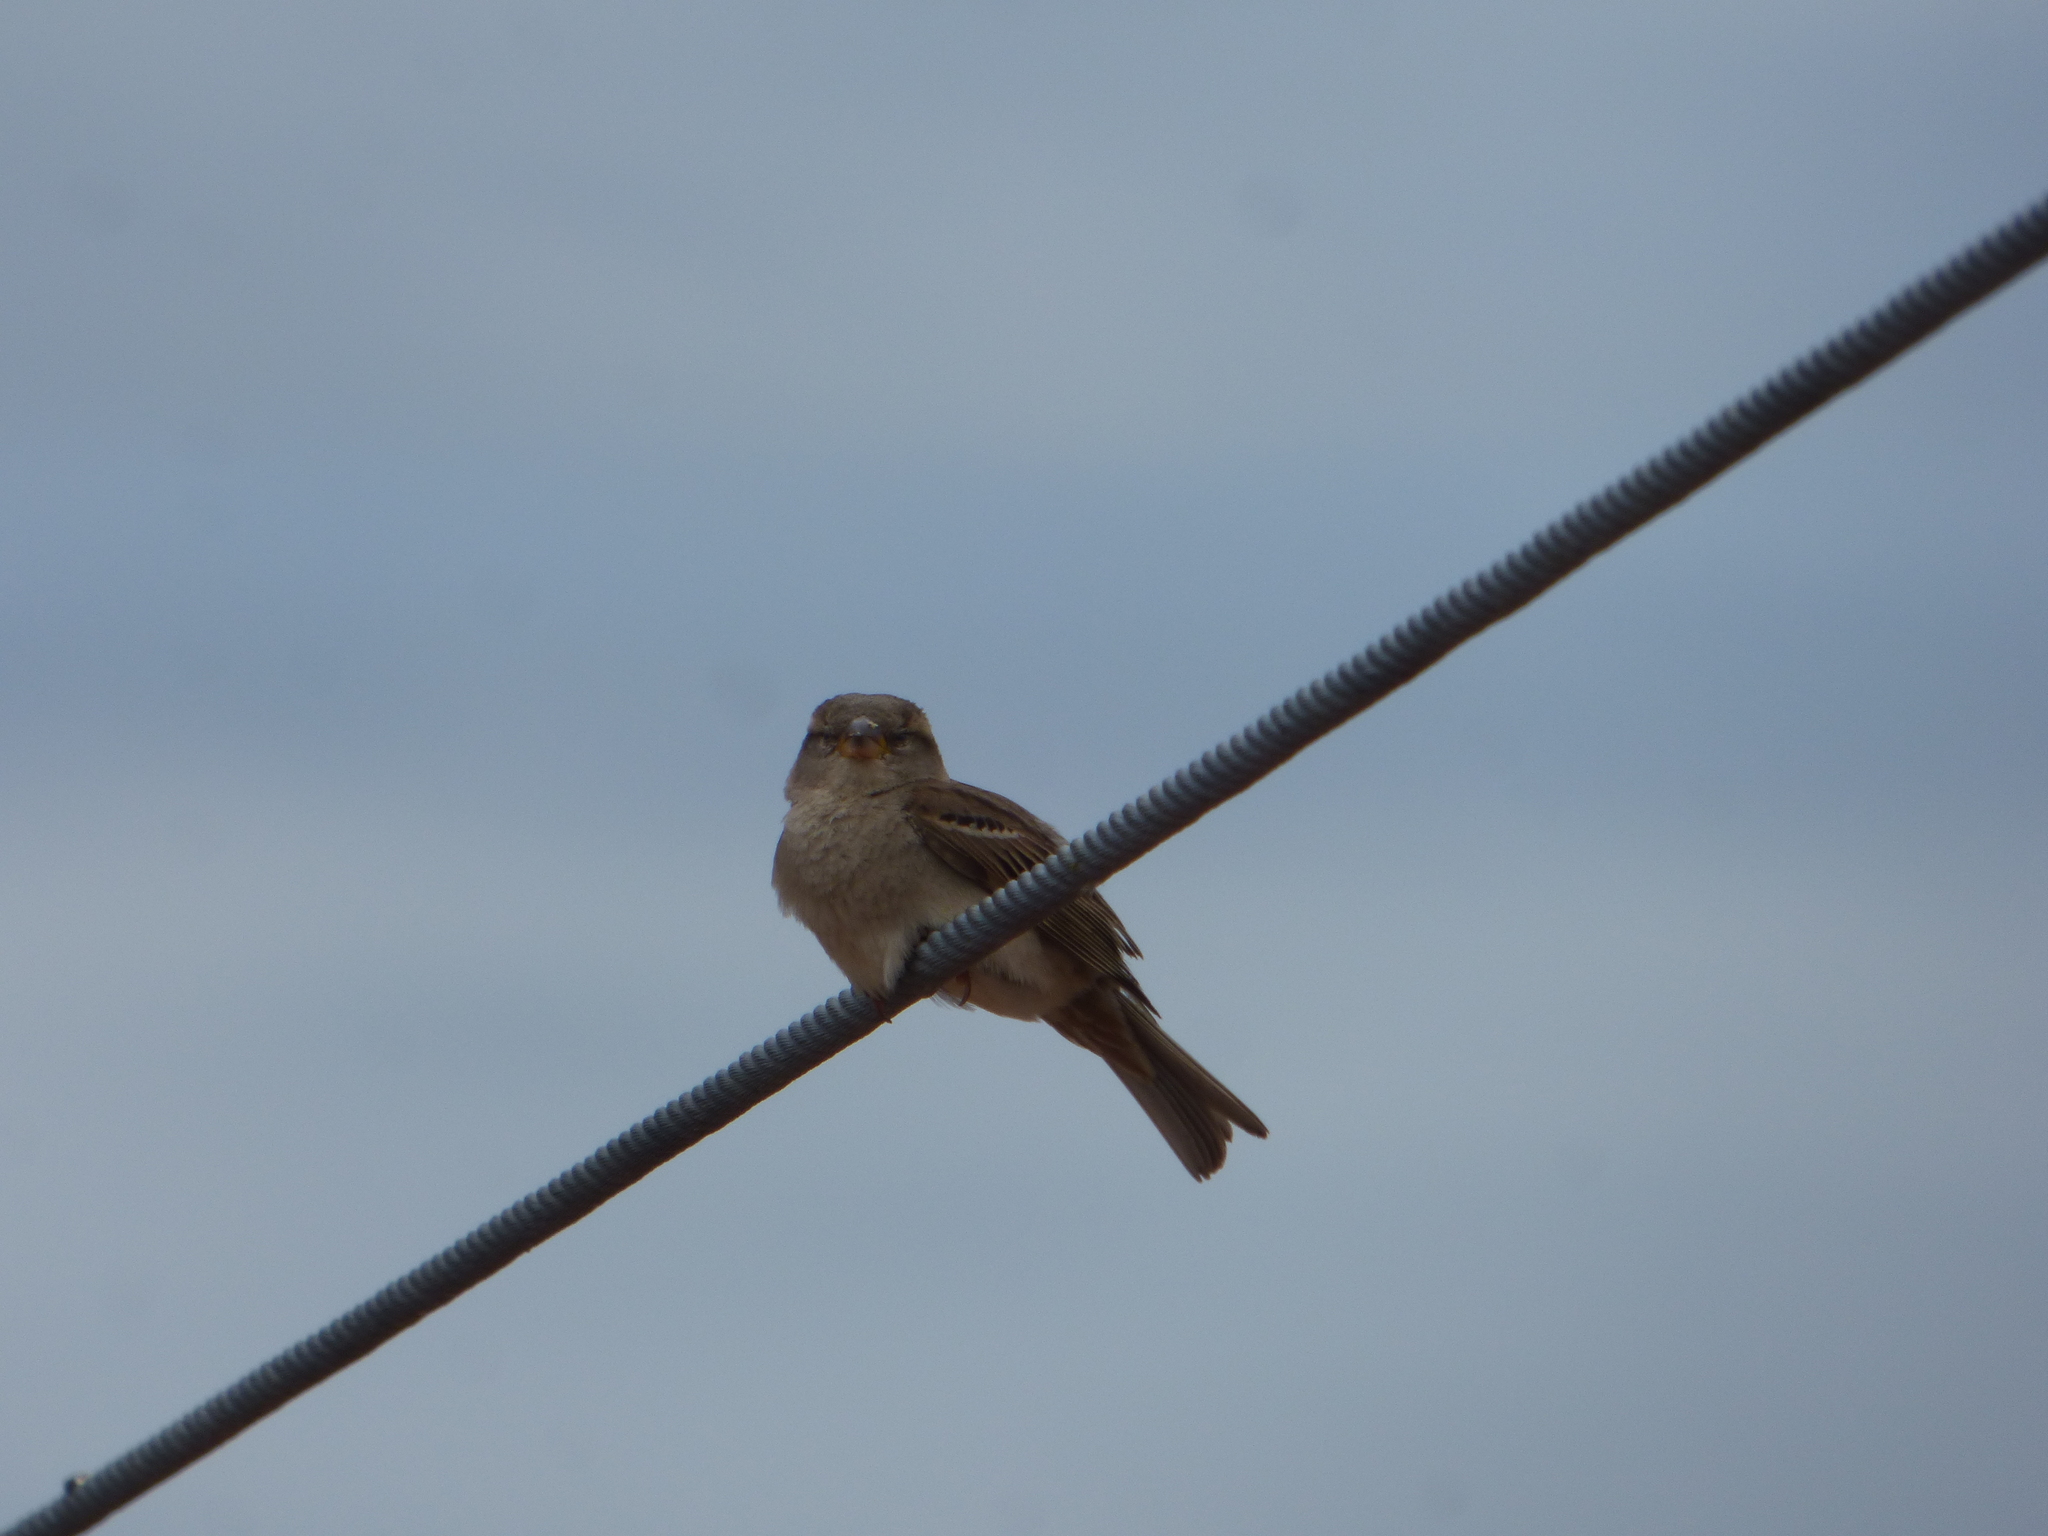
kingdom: Animalia
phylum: Chordata
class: Aves
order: Passeriformes
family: Passeridae
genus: Passer
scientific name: Passer domesticus
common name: House sparrow
